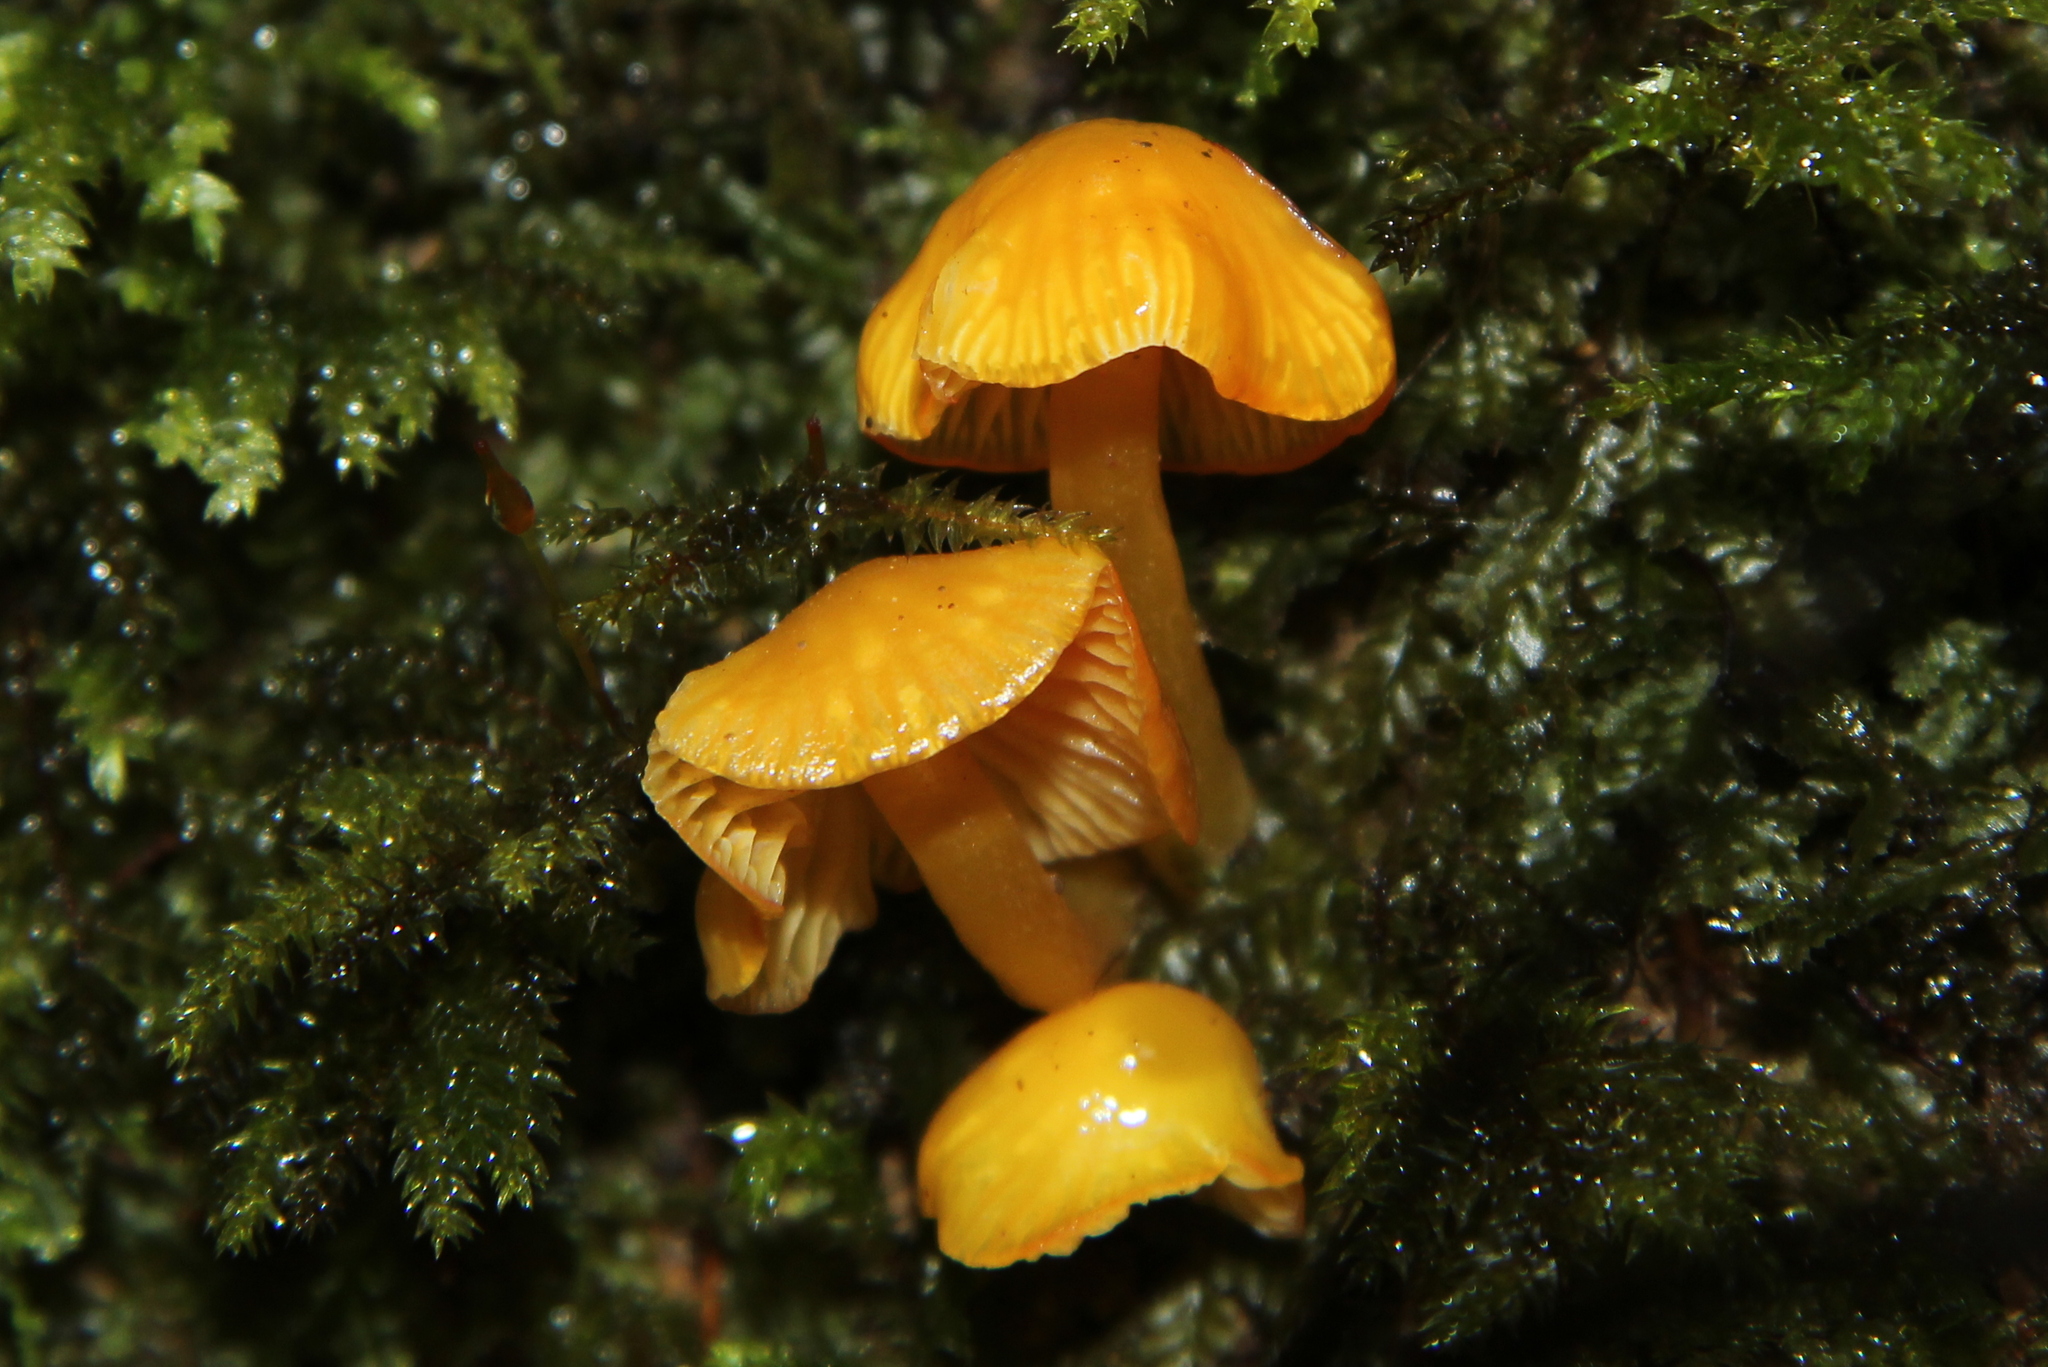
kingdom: Fungi
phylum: Basidiomycota
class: Agaricomycetes
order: Agaricales
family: Hygrophoraceae
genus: Hygrocybe
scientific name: Hygrocybe
